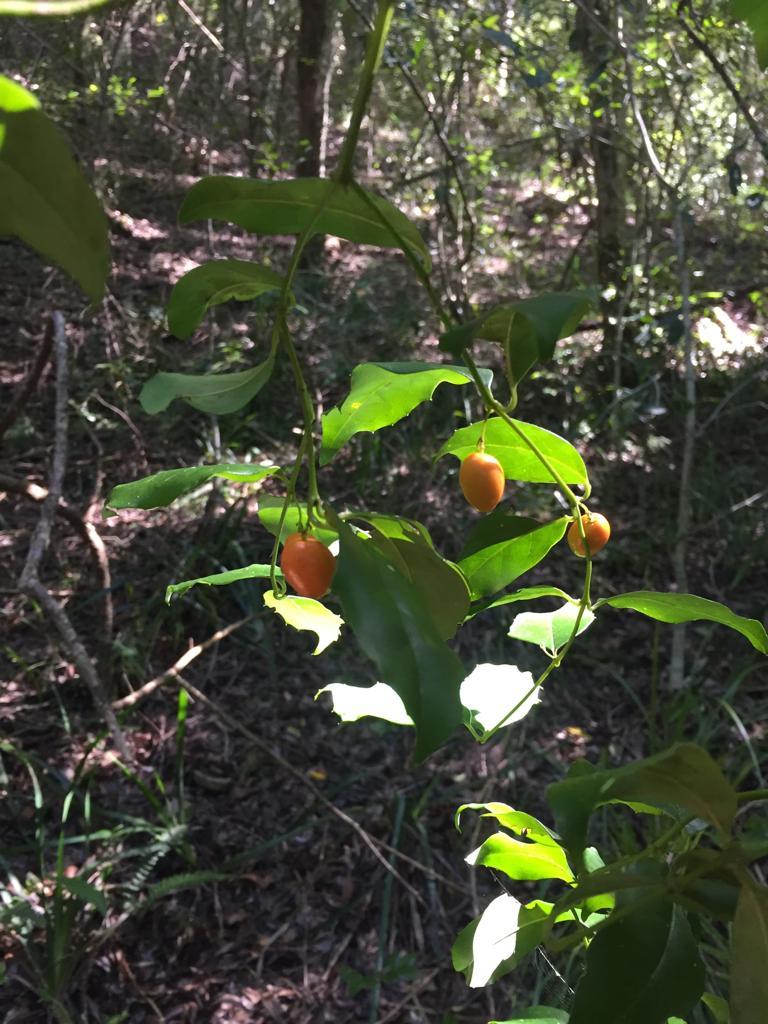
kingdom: Plantae
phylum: Tracheophyta
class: Magnoliopsida
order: Icacinales
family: Icacinaceae
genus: Cassinopsis
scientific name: Cassinopsis ilicifolia
